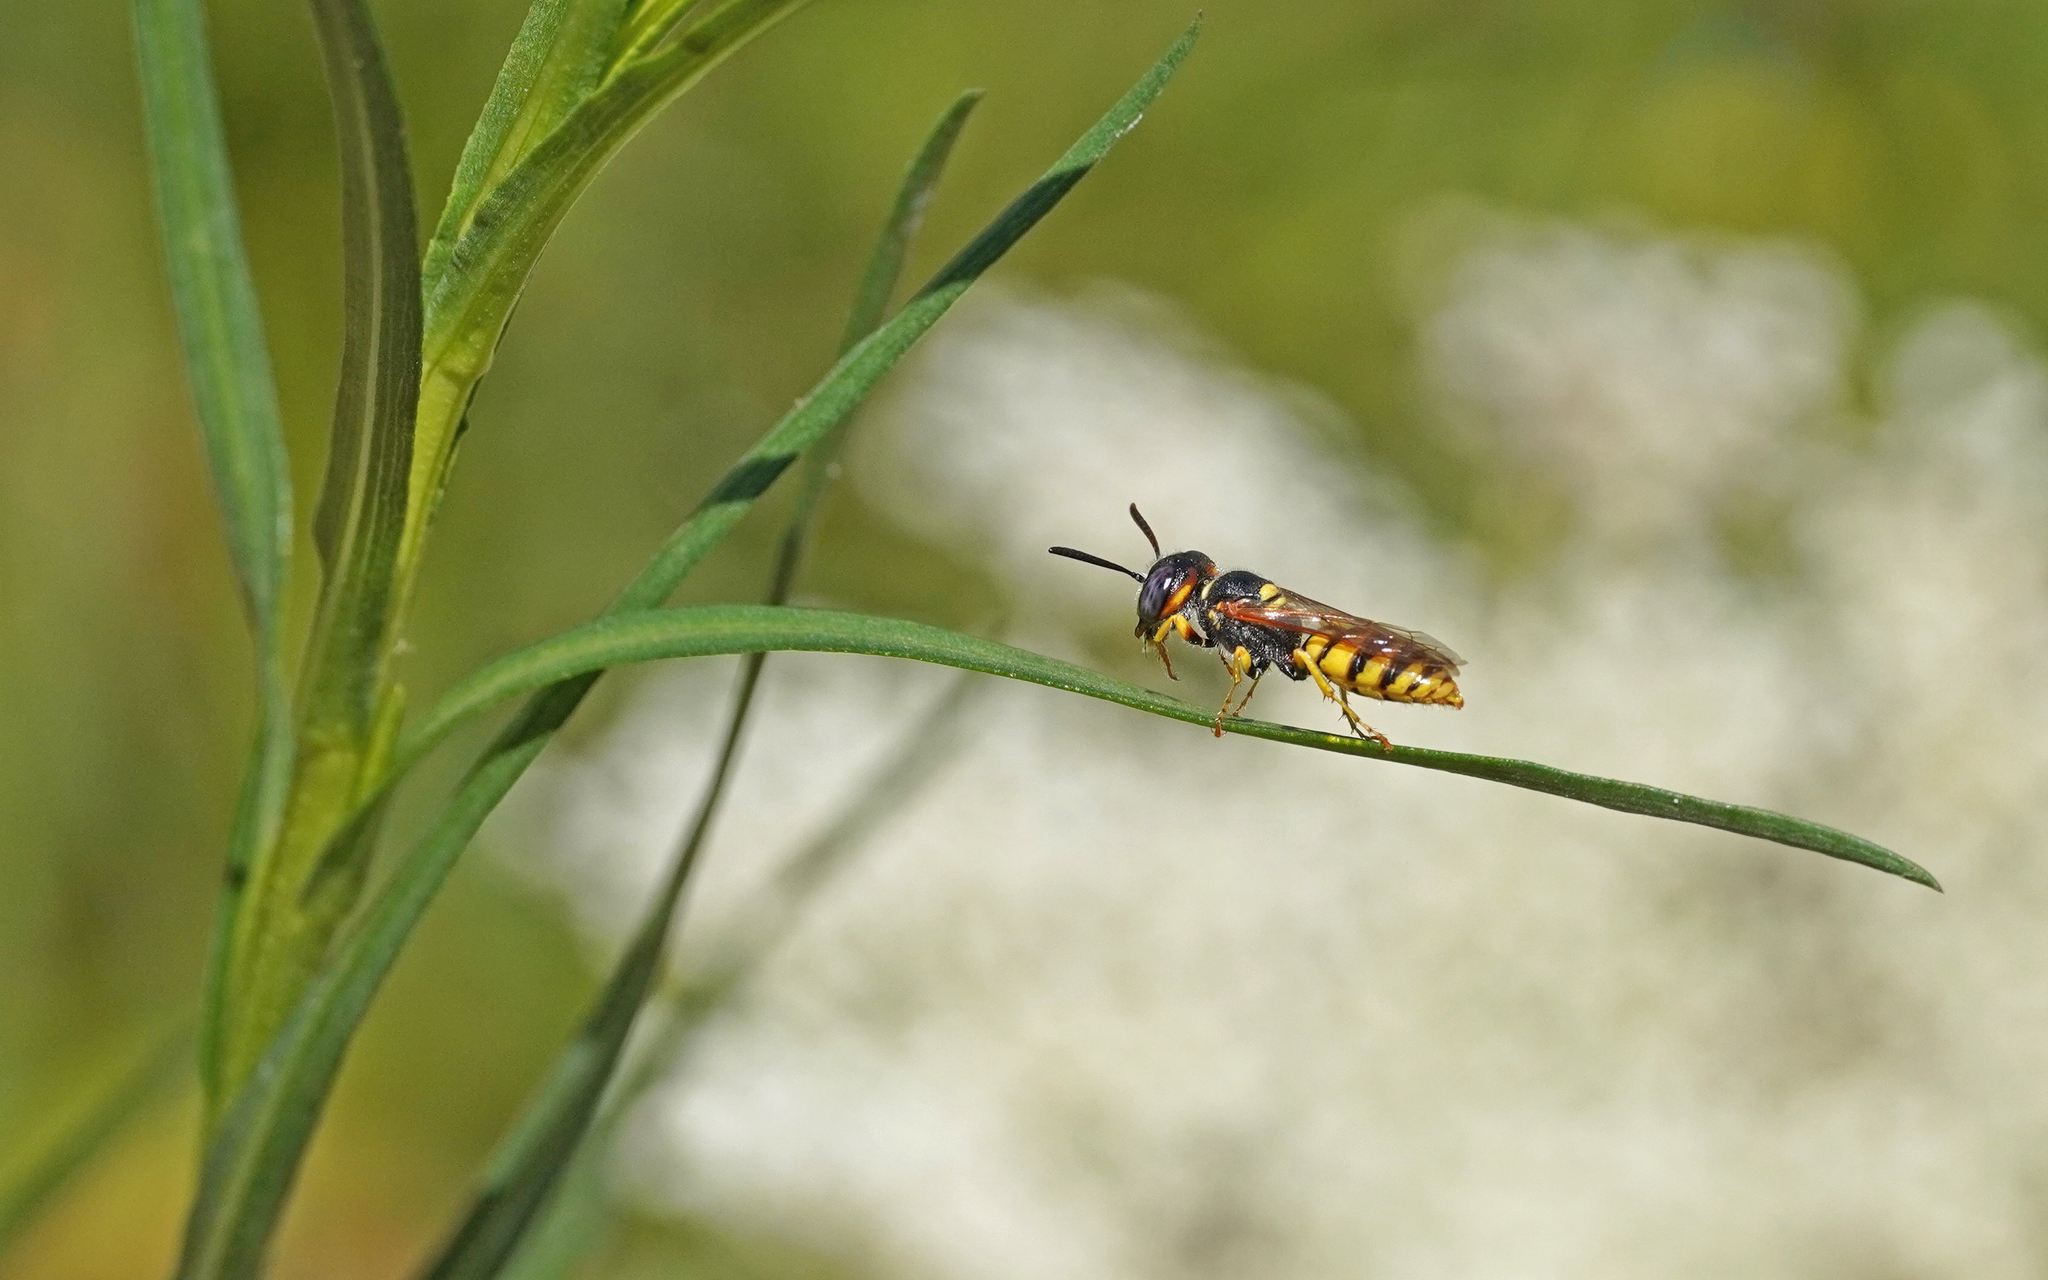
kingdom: Animalia
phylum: Arthropoda
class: Insecta
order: Hymenoptera
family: Crabronidae
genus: Philanthus
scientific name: Philanthus triangulum
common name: Bee wolf
